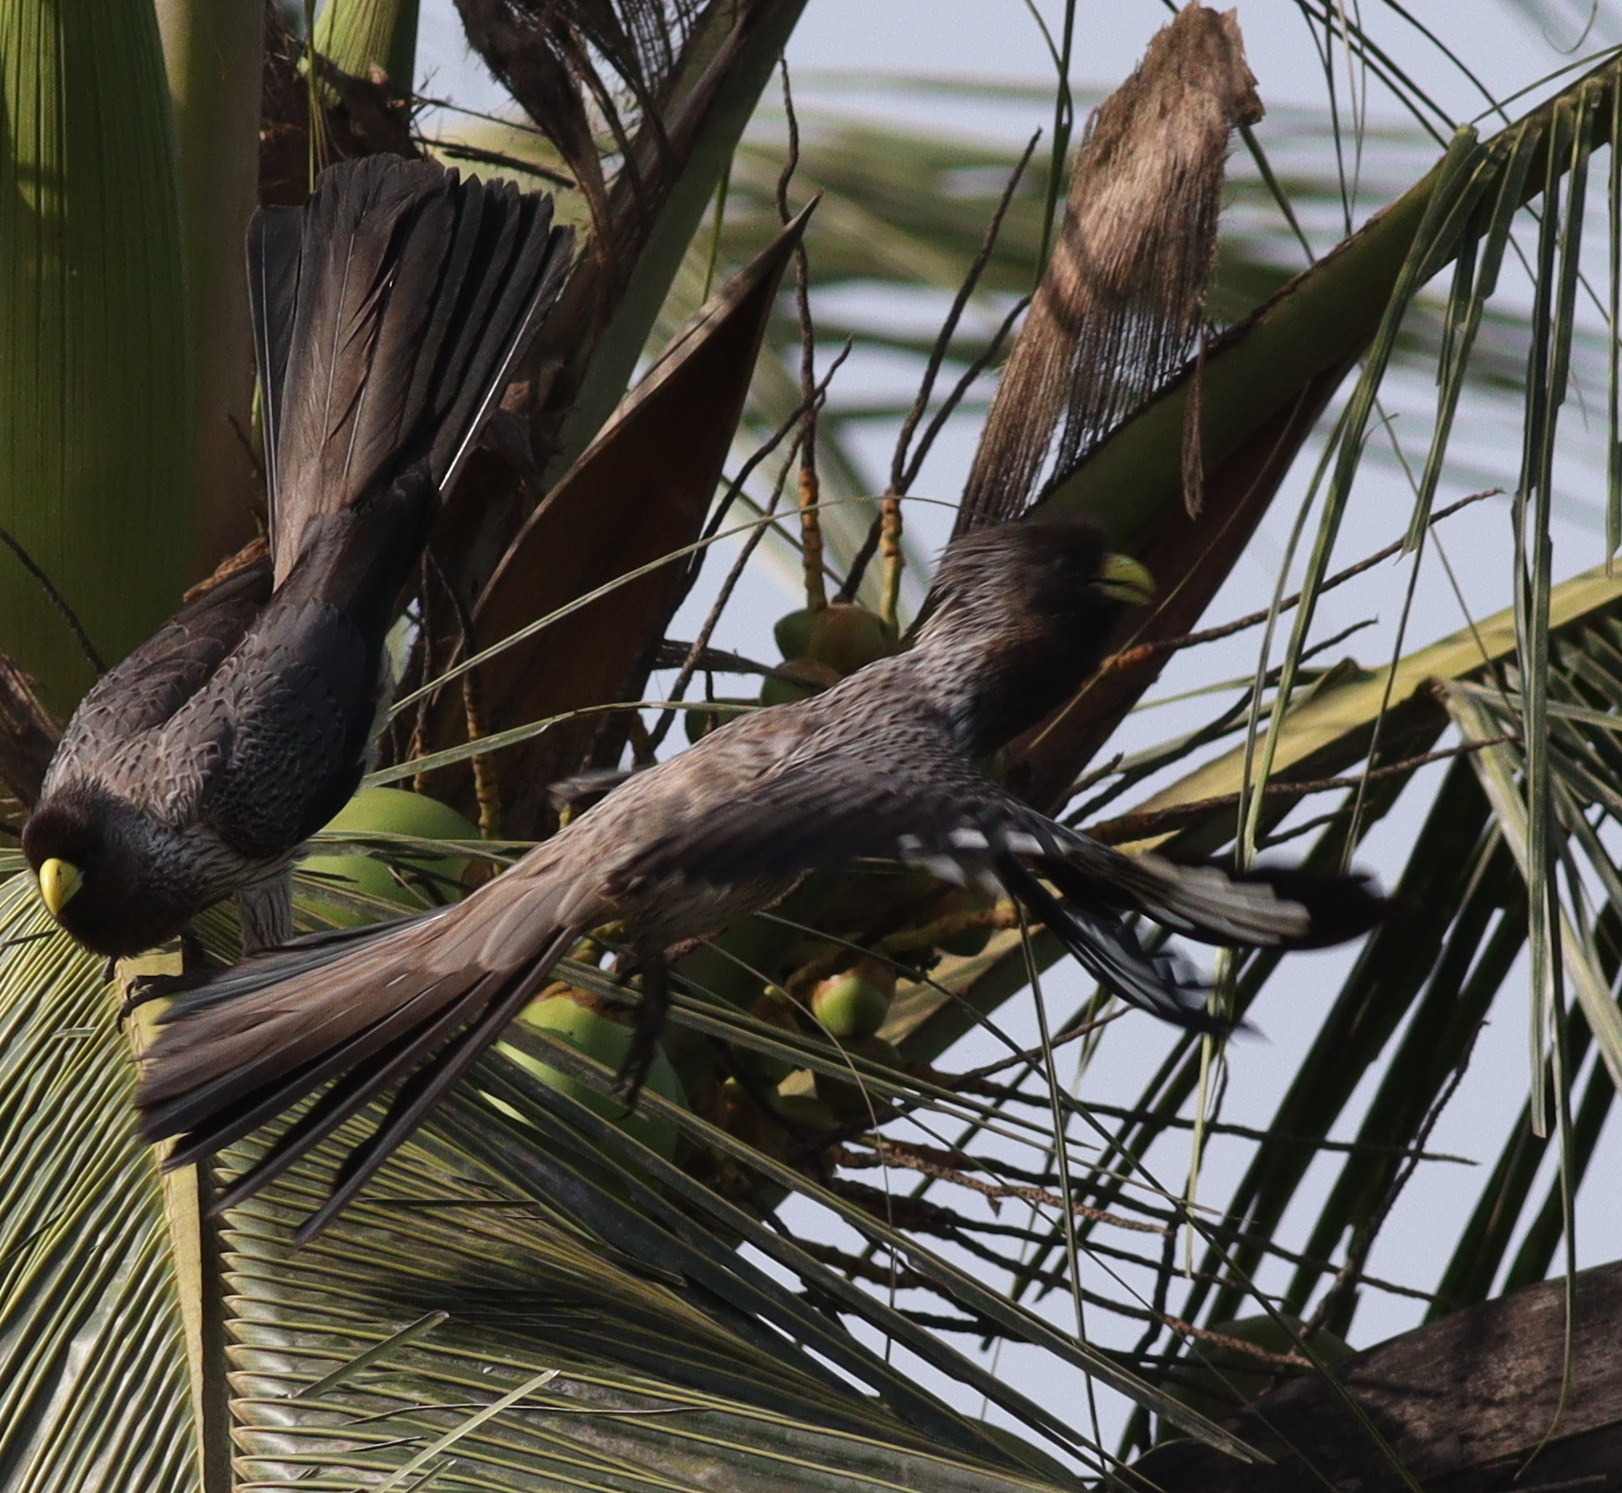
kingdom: Animalia
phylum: Chordata
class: Aves
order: Musophagiformes
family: Musophagidae
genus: Crinifer
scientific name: Crinifer piscator
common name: Western plantain-eater
